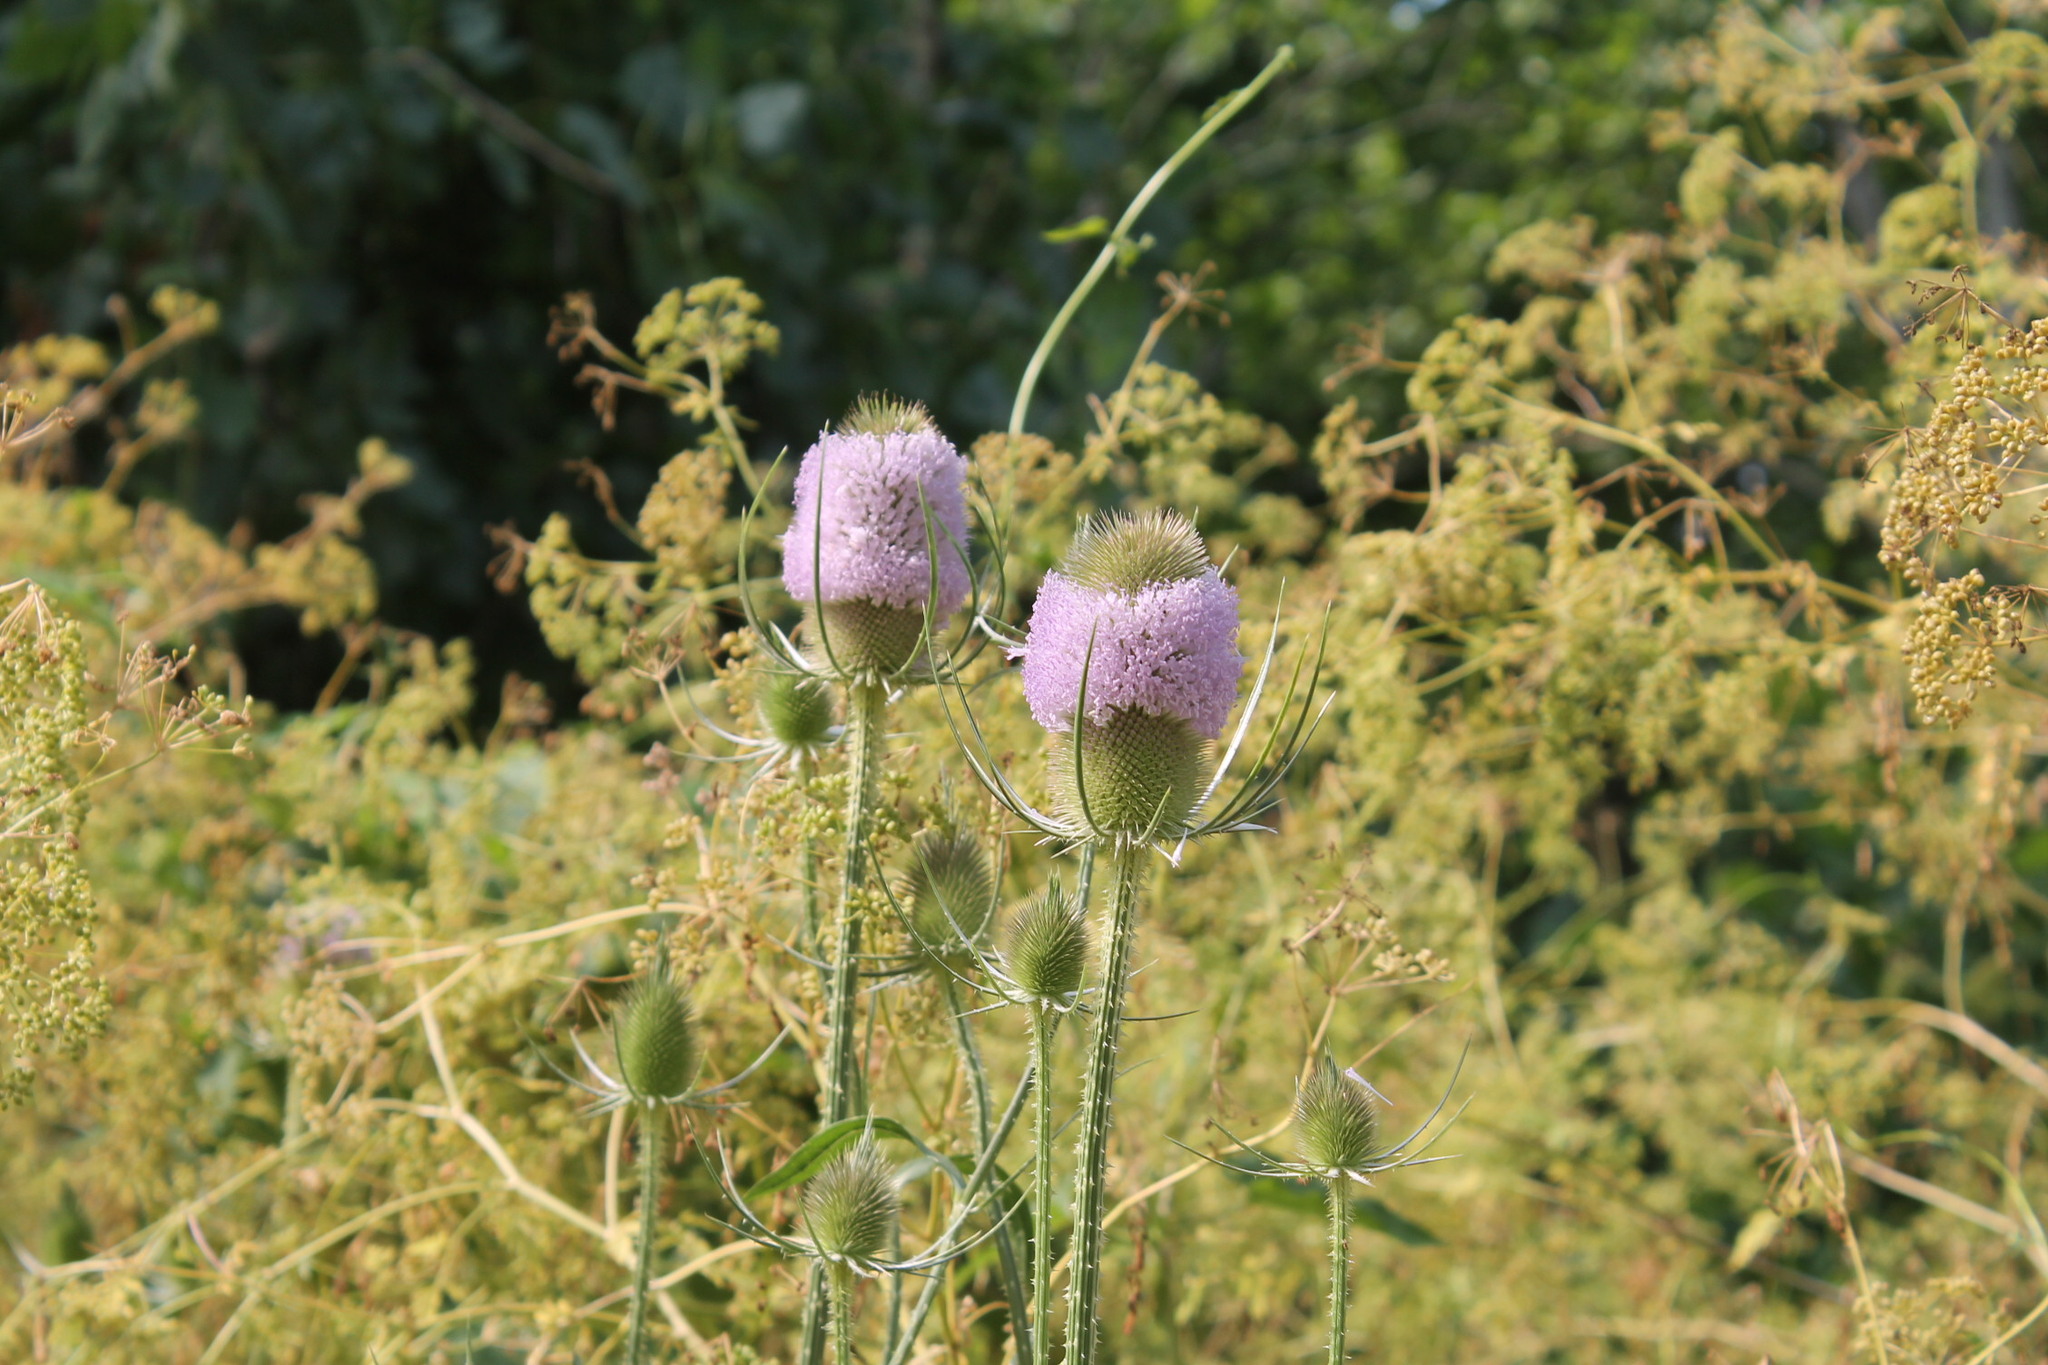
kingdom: Plantae
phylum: Tracheophyta
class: Magnoliopsida
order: Dipsacales
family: Caprifoliaceae
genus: Dipsacus
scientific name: Dipsacus fullonum
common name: Teasel
